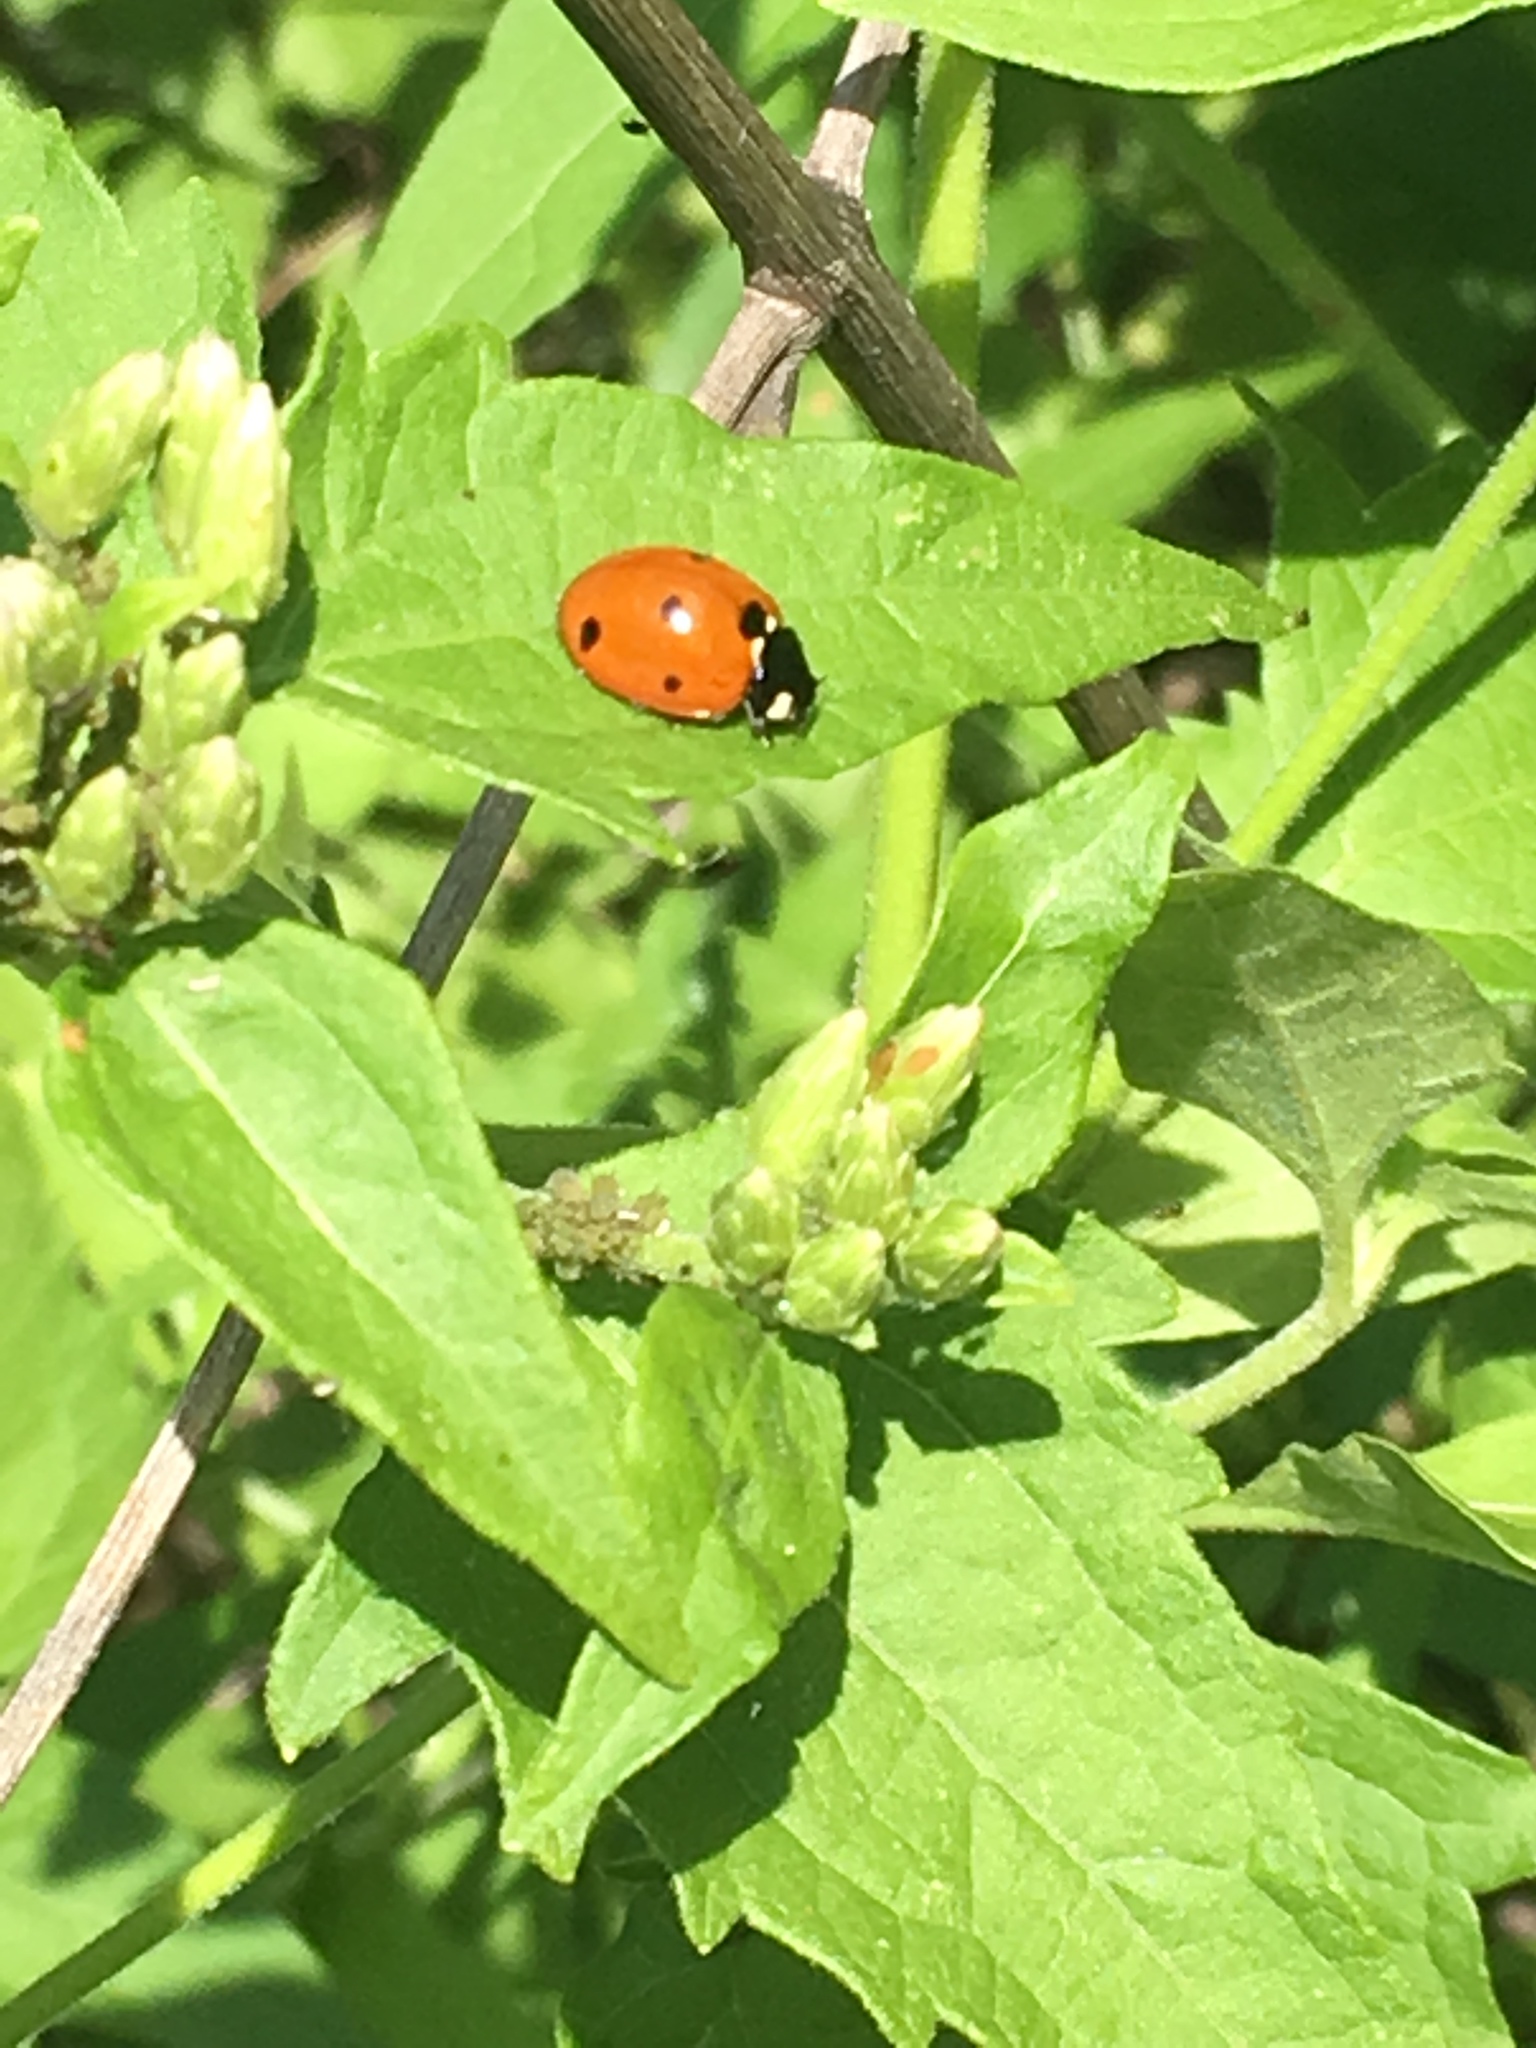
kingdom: Animalia
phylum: Arthropoda
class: Insecta
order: Coleoptera
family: Coccinellidae
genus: Coccinella
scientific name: Coccinella septempunctata
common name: Sevenspotted lady beetle
